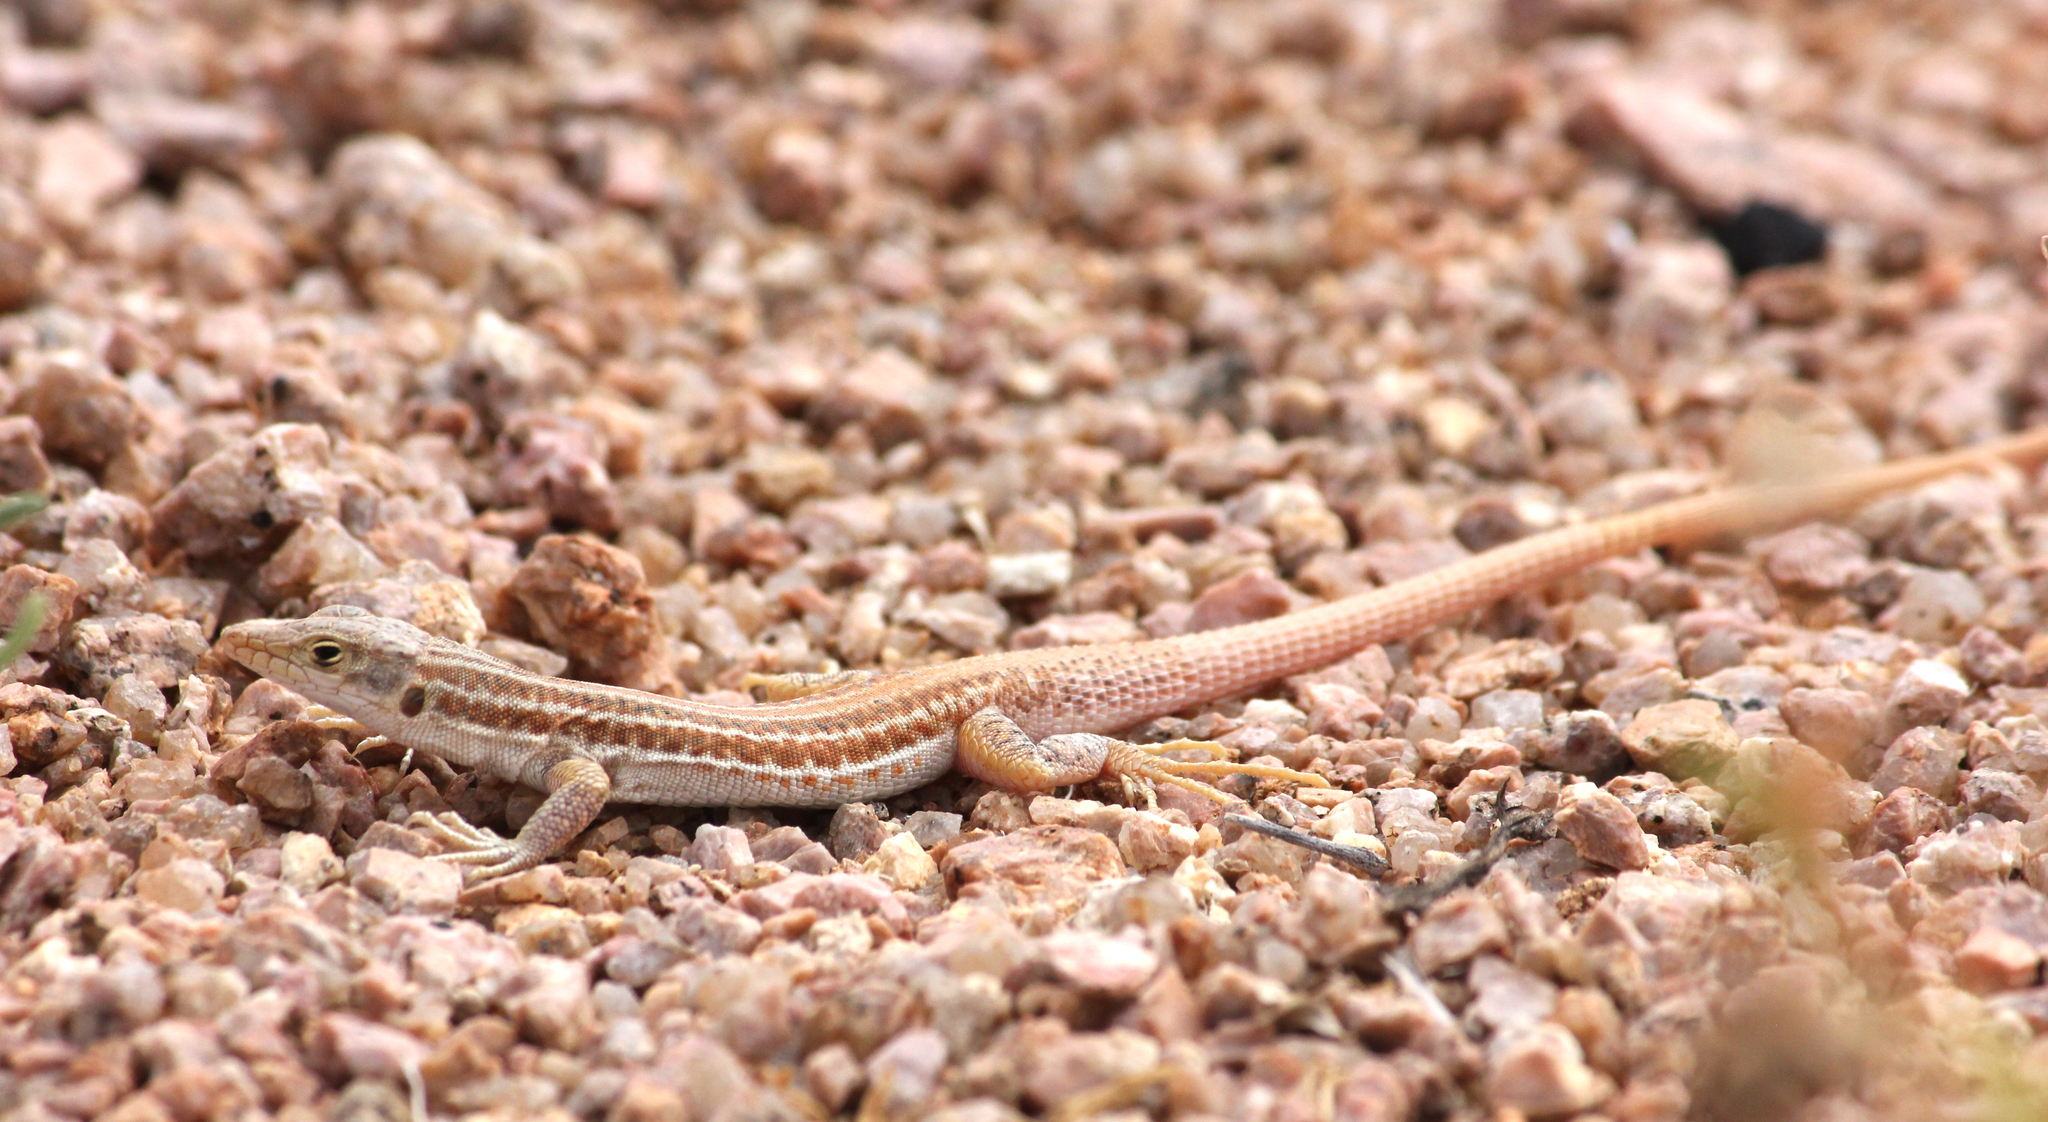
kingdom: Animalia
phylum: Chordata
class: Squamata
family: Lacertidae
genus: Pedioplanis
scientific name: Pedioplanis namaquensis
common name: Namaqua sand lizard
